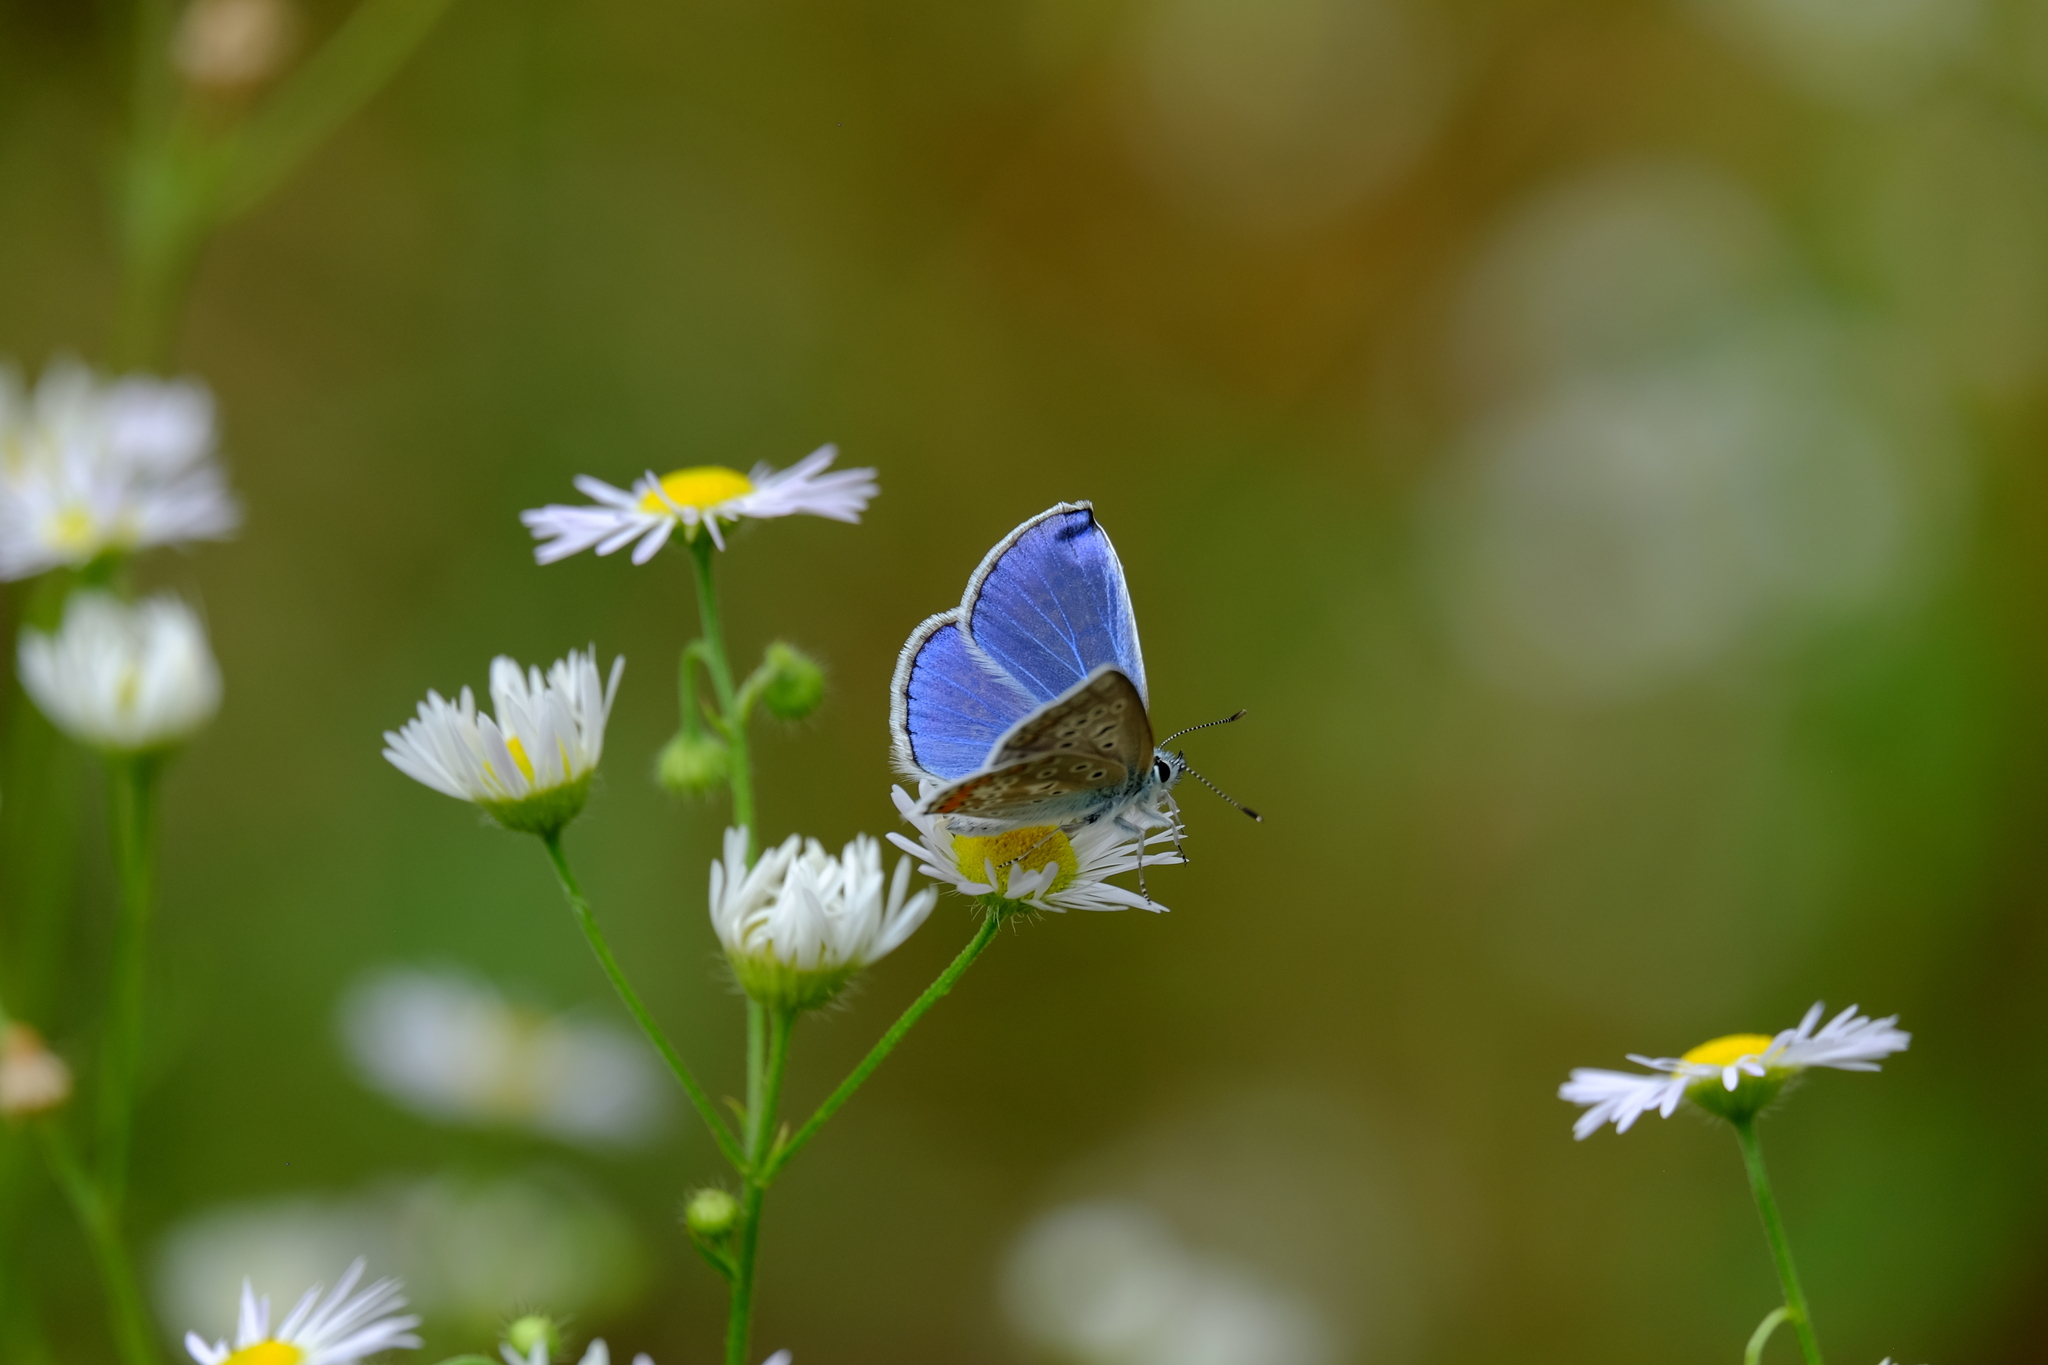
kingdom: Animalia
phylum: Arthropoda
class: Insecta
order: Lepidoptera
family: Lycaenidae
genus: Polyommatus
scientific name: Polyommatus icarus
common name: Common blue
